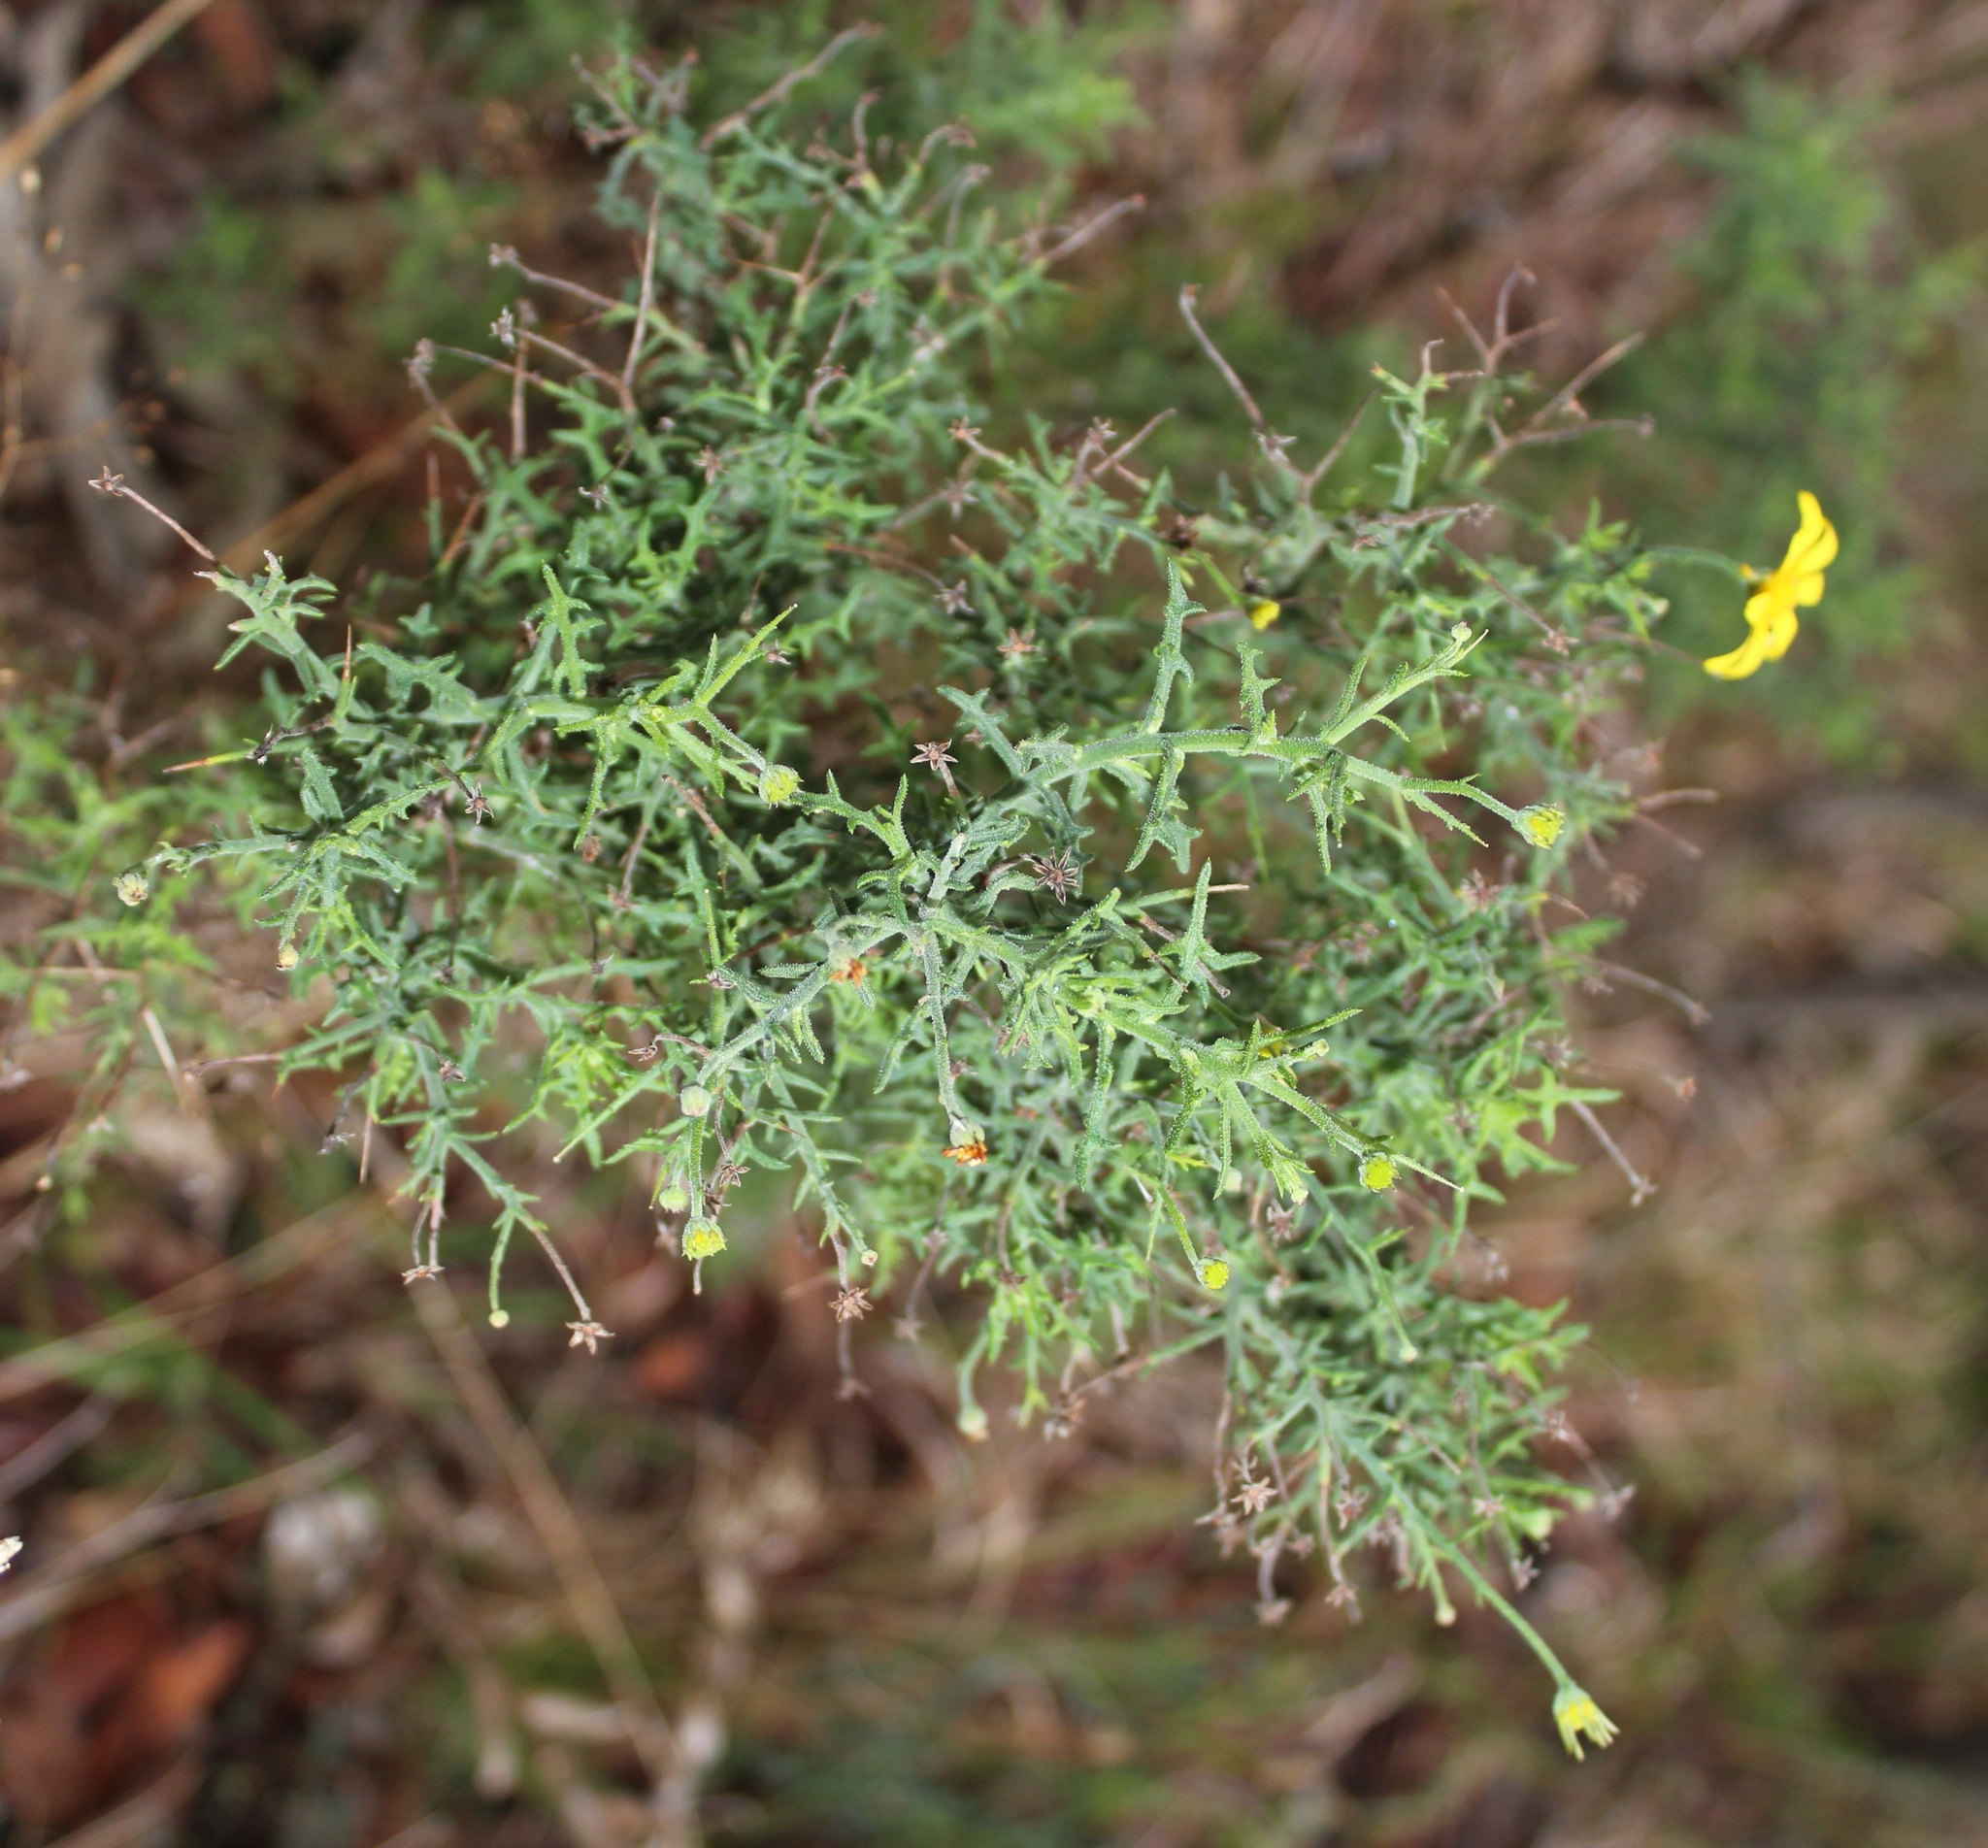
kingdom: Plantae
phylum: Tracheophyta
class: Magnoliopsida
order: Asterales
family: Asteraceae
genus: Osteospermum
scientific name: Osteospermum spinosum
